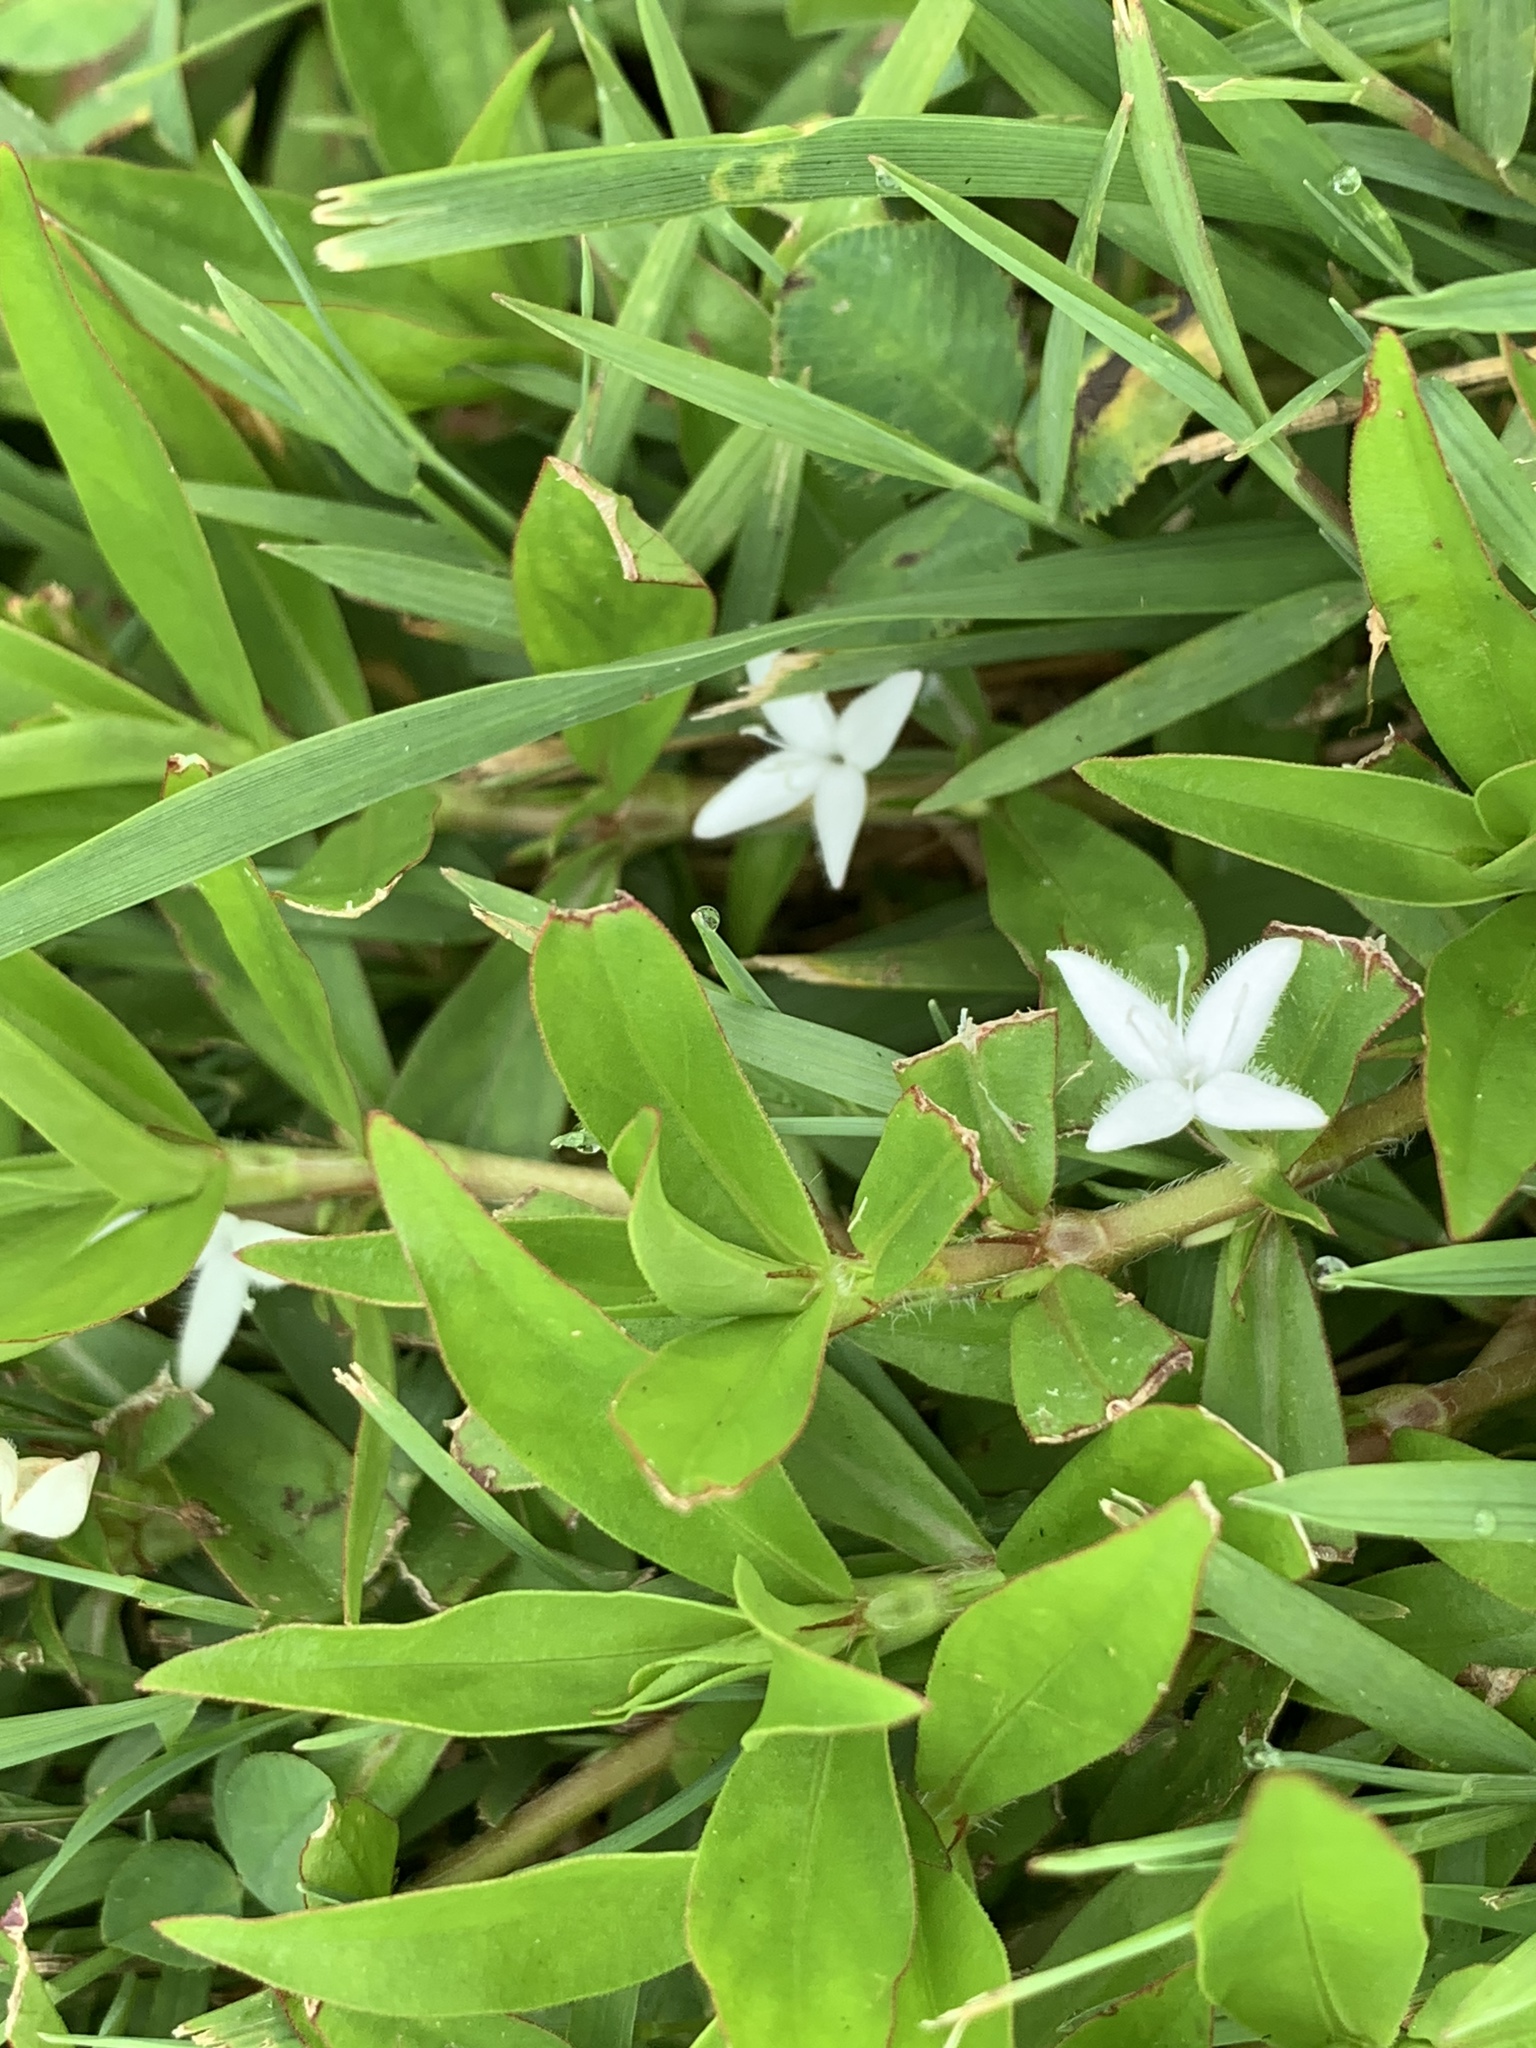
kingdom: Plantae
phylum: Tracheophyta
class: Magnoliopsida
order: Gentianales
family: Rubiaceae
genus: Diodia
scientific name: Diodia virginiana
